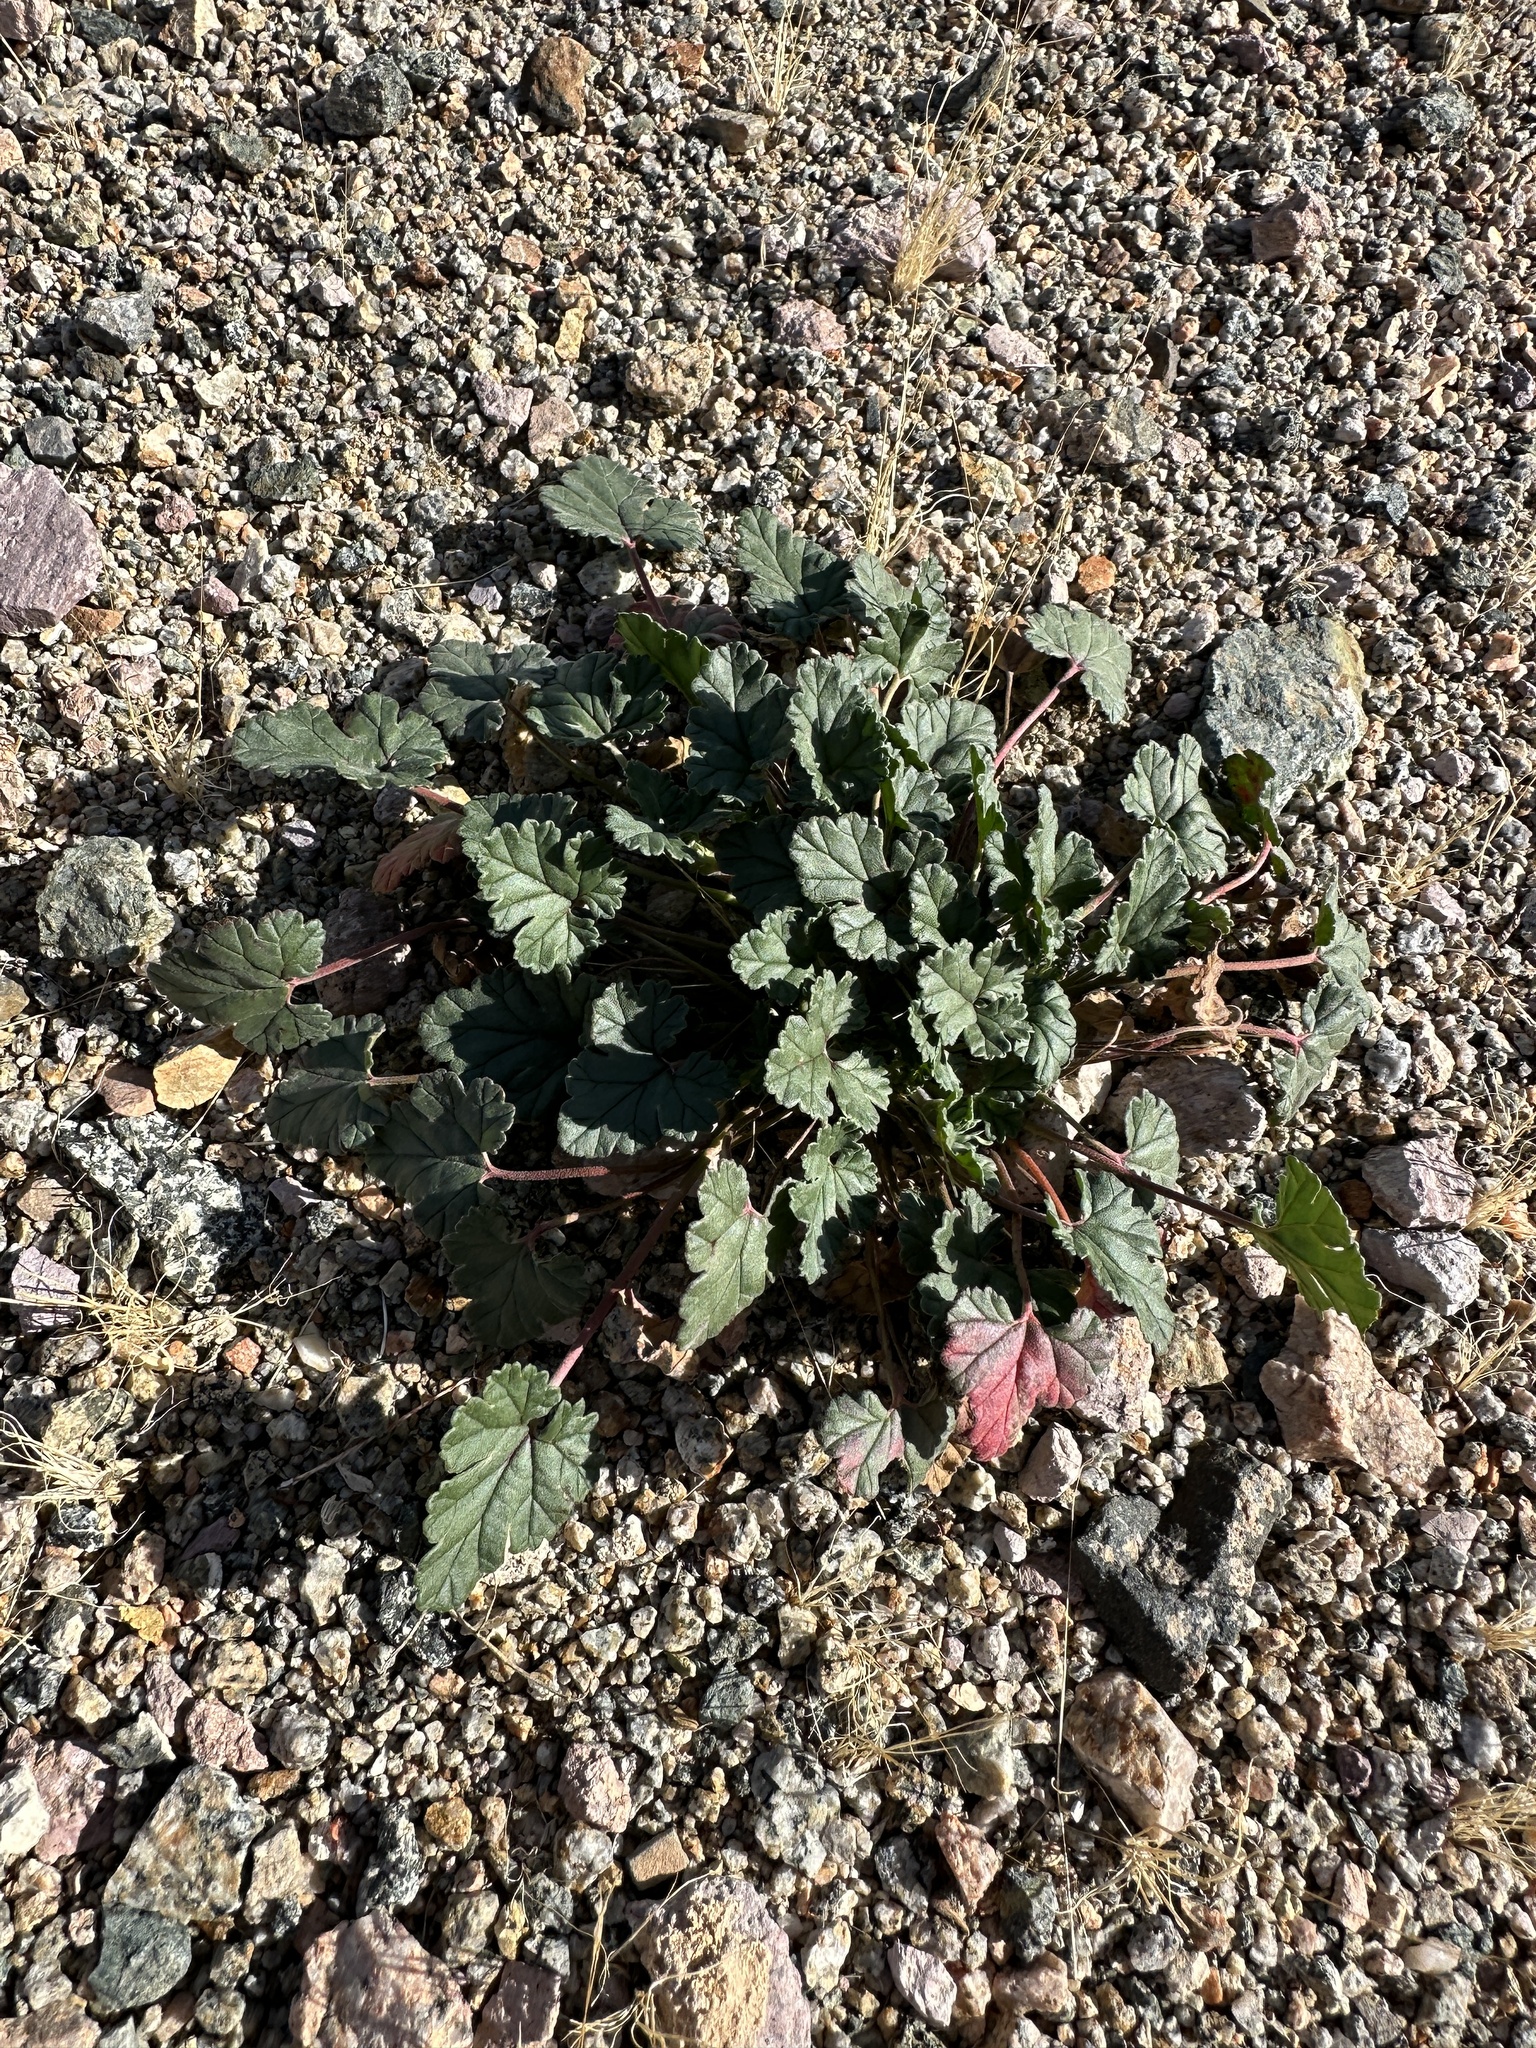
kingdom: Plantae
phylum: Tracheophyta
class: Magnoliopsida
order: Geraniales
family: Geraniaceae
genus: Erodium
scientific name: Erodium texanum
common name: Texas stork's-bill
